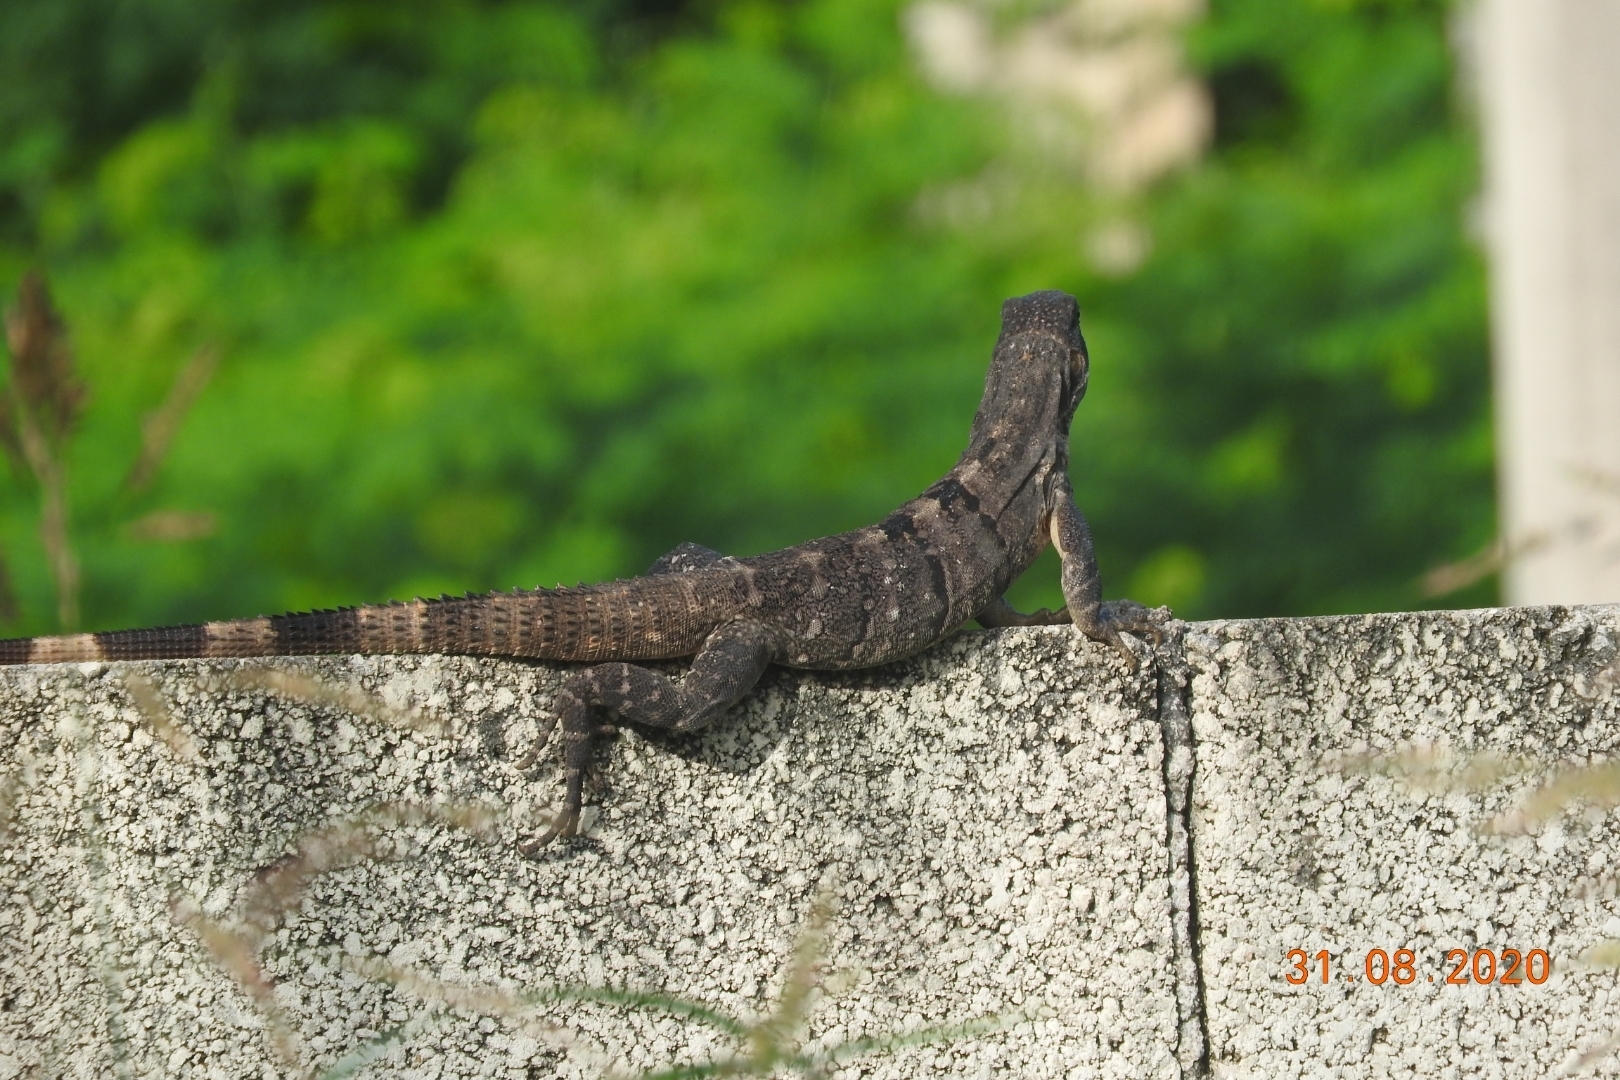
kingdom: Animalia
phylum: Chordata
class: Squamata
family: Iguanidae
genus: Ctenosaura
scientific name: Ctenosaura similis
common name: Black spiny-tailed iguana
